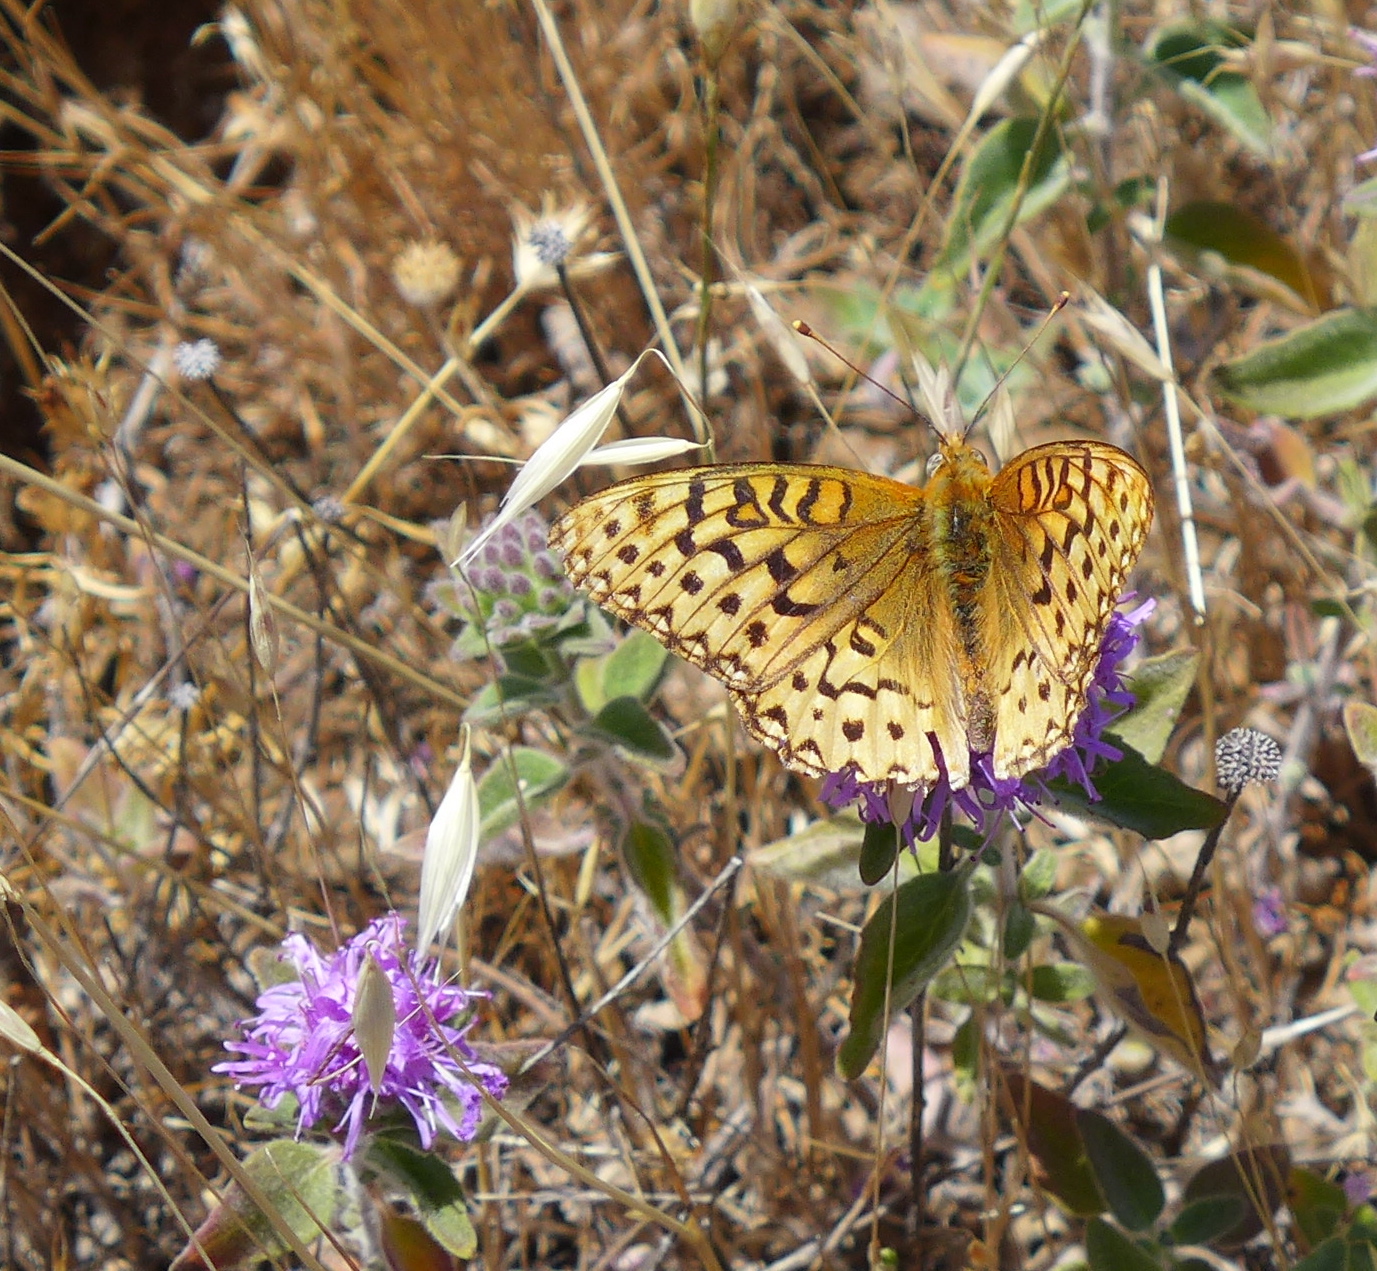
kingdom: Animalia
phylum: Arthropoda
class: Insecta
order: Lepidoptera
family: Nymphalidae
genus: Speyeria
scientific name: Speyeria callippe
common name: Callippe fritillary
